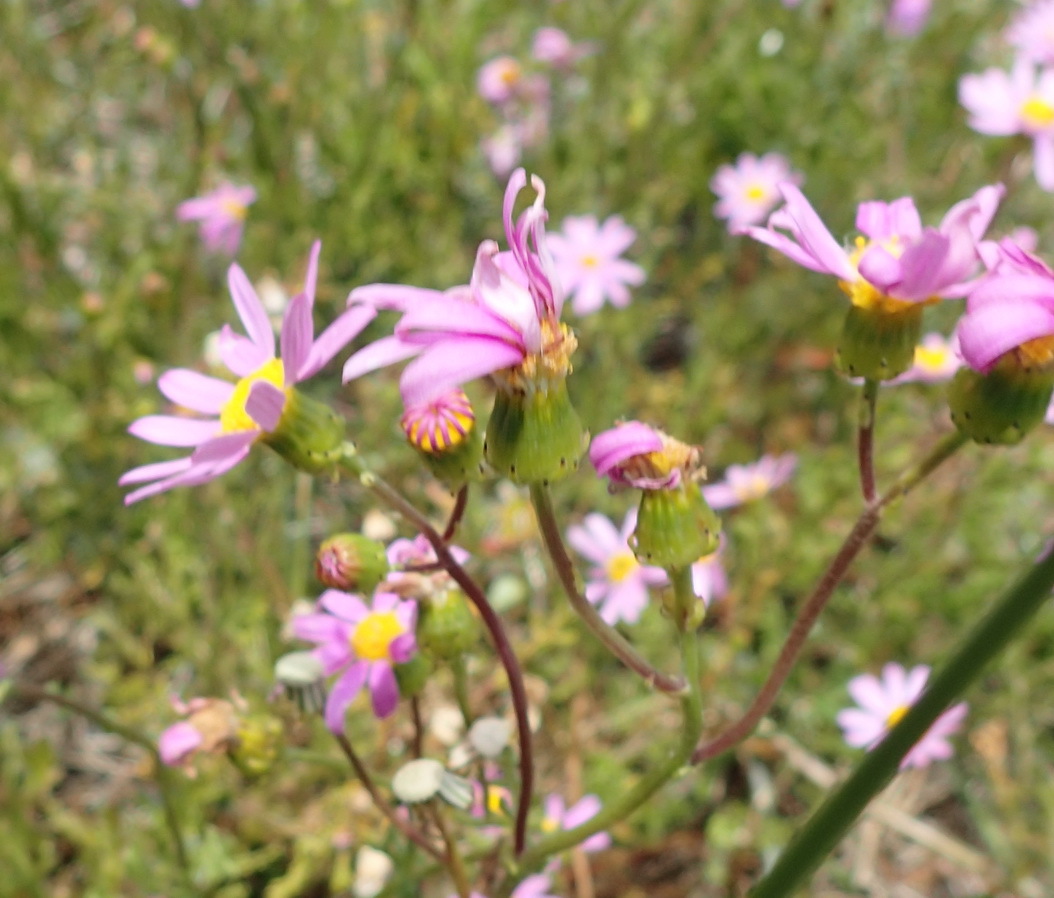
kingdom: Plantae
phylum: Tracheophyta
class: Magnoliopsida
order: Asterales
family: Asteraceae
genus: Senecio
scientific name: Senecio elegans
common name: Purple groundsel
